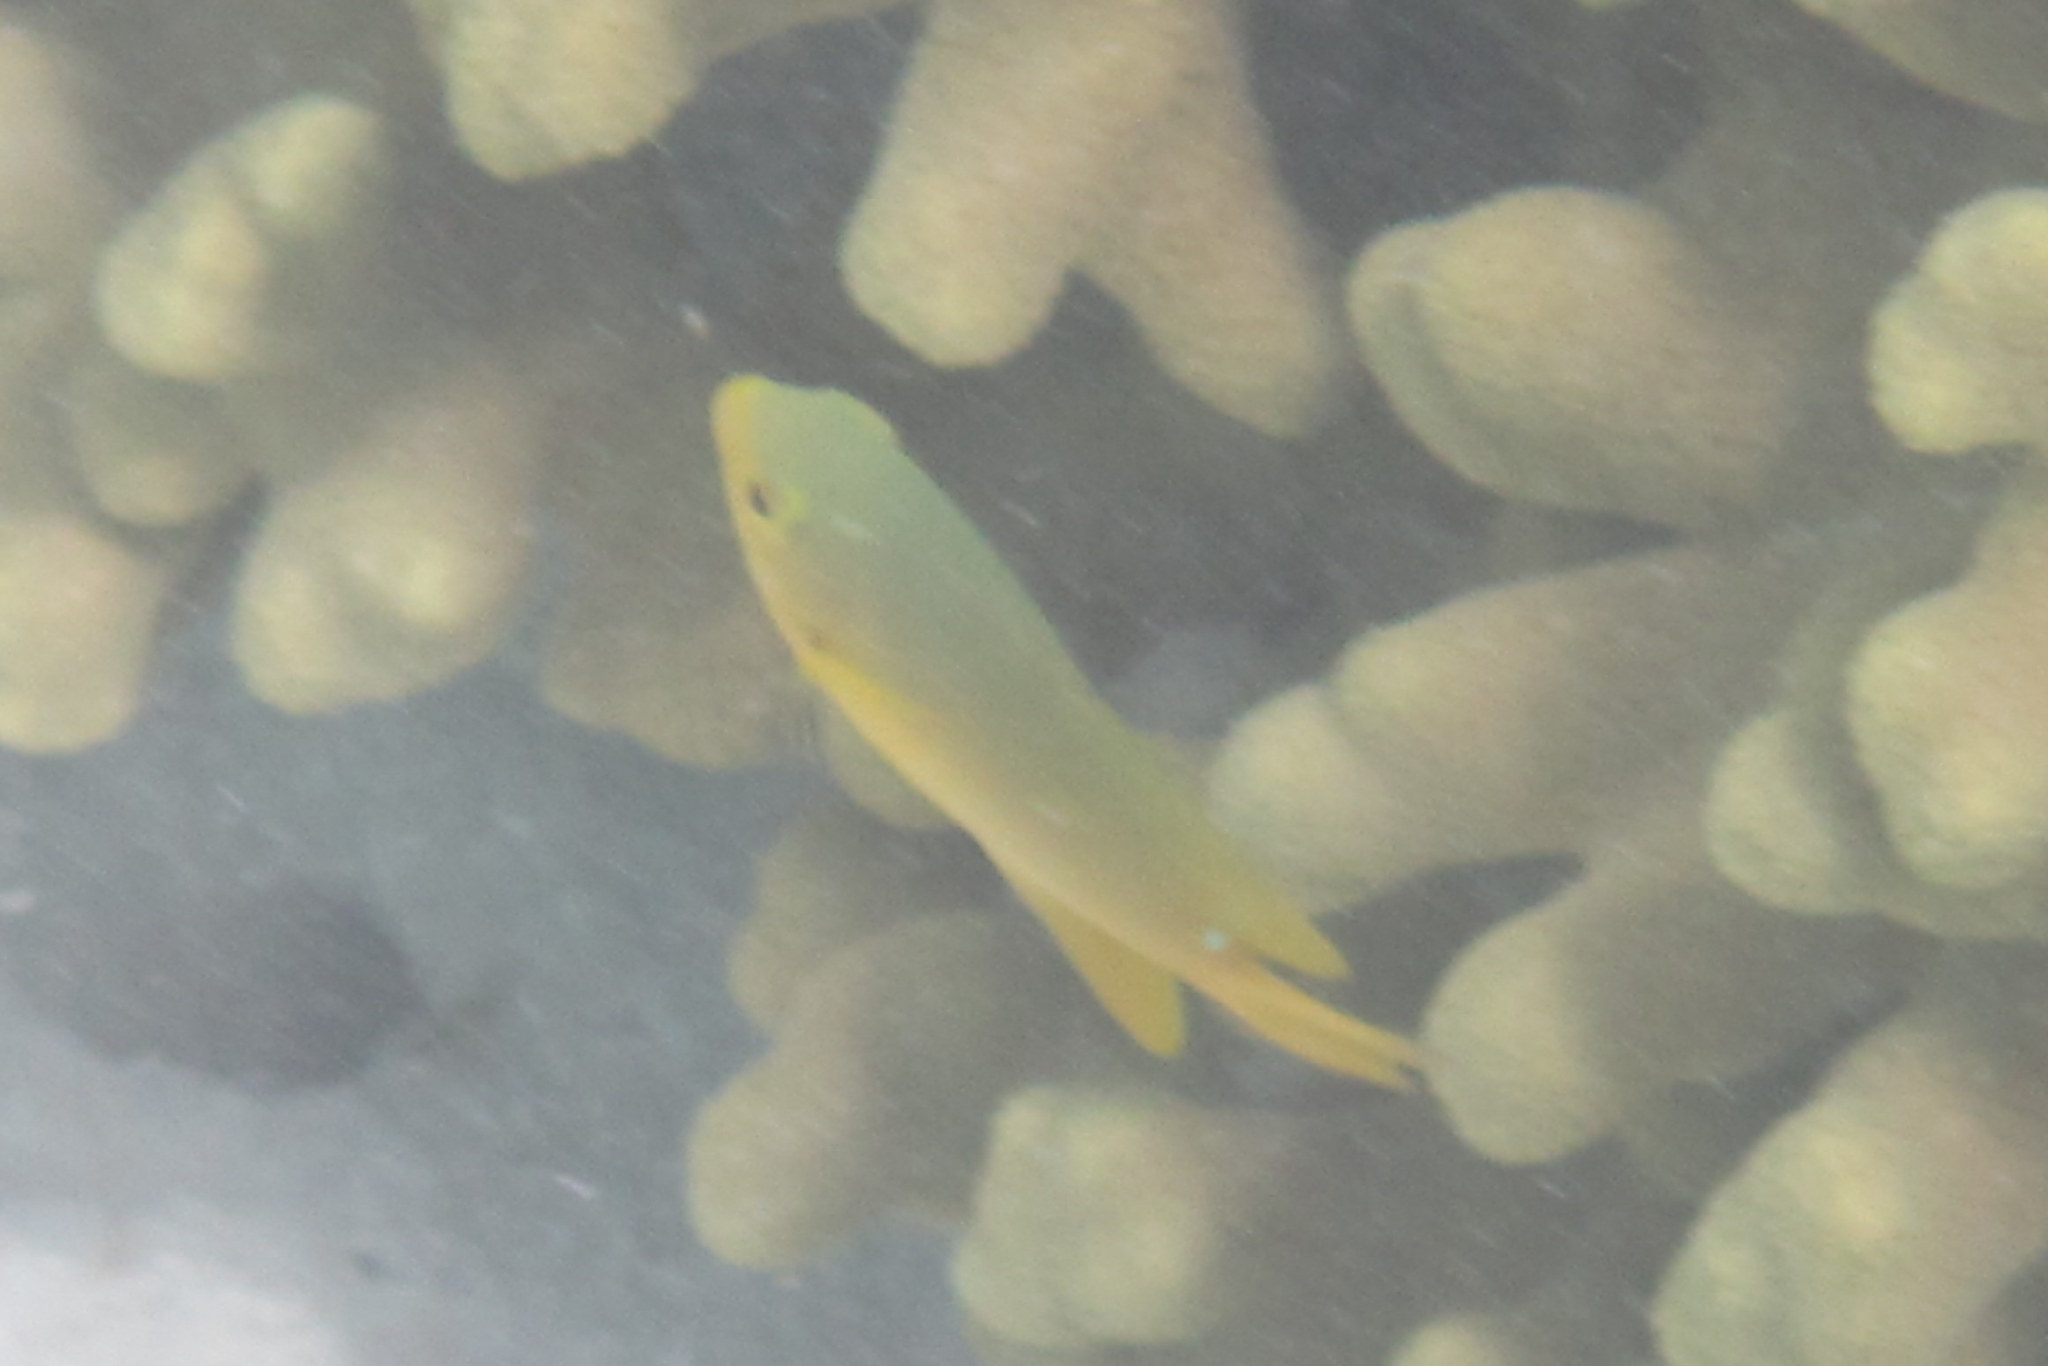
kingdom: Animalia
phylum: Chordata
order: Perciformes
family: Pomacentridae
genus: Pomacentrus
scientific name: Pomacentrus moluccensis
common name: Lemon damsel
